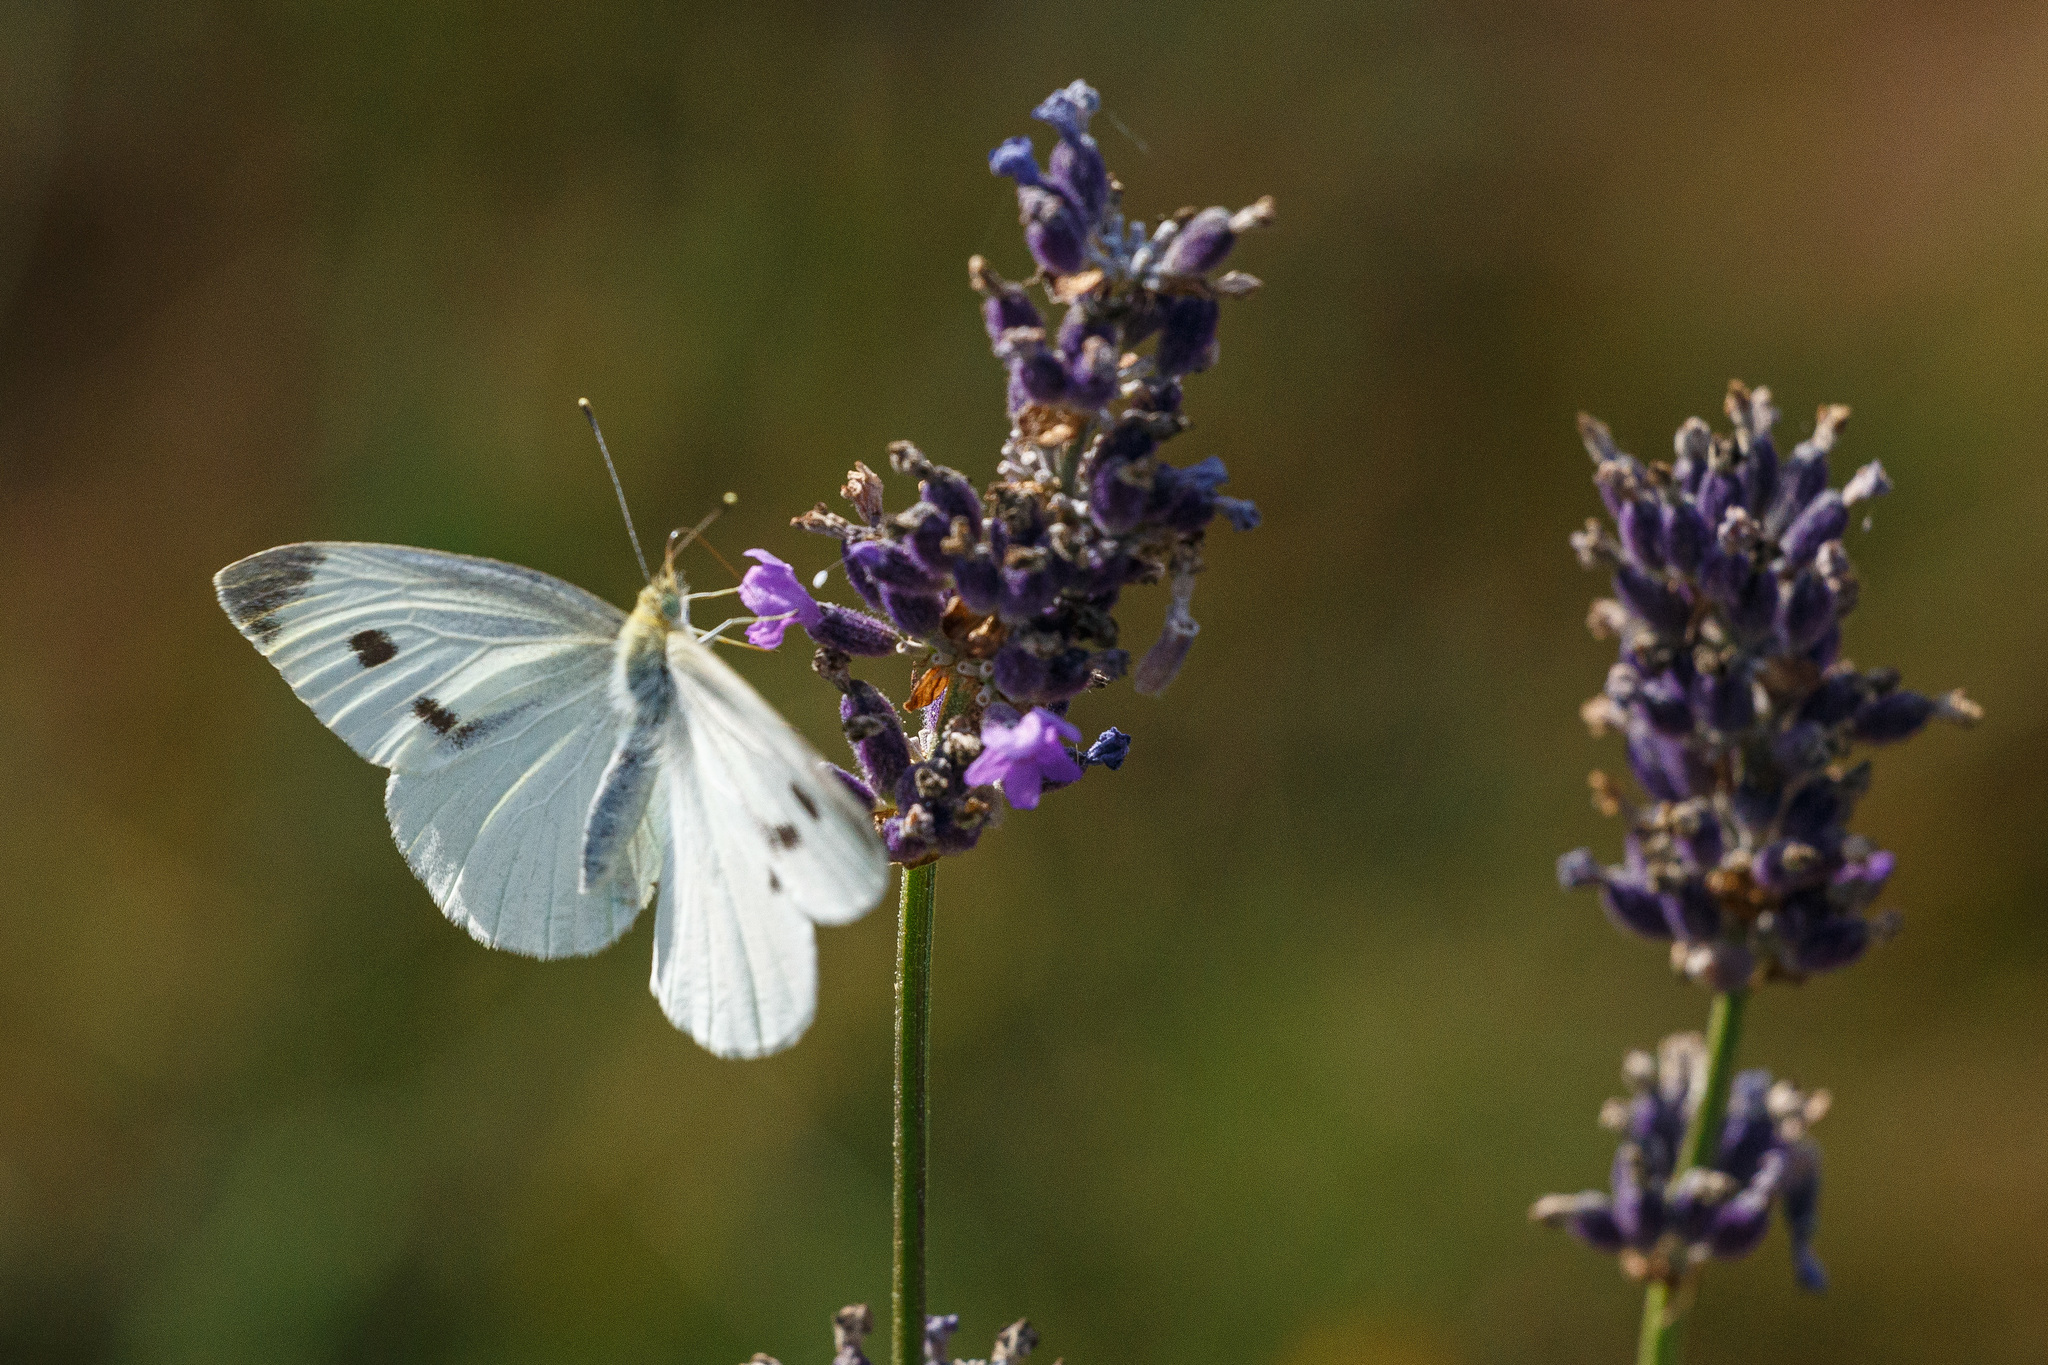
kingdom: Animalia
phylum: Arthropoda
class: Insecta
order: Lepidoptera
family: Pieridae
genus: Pieris
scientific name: Pieris rapae
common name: Small white
